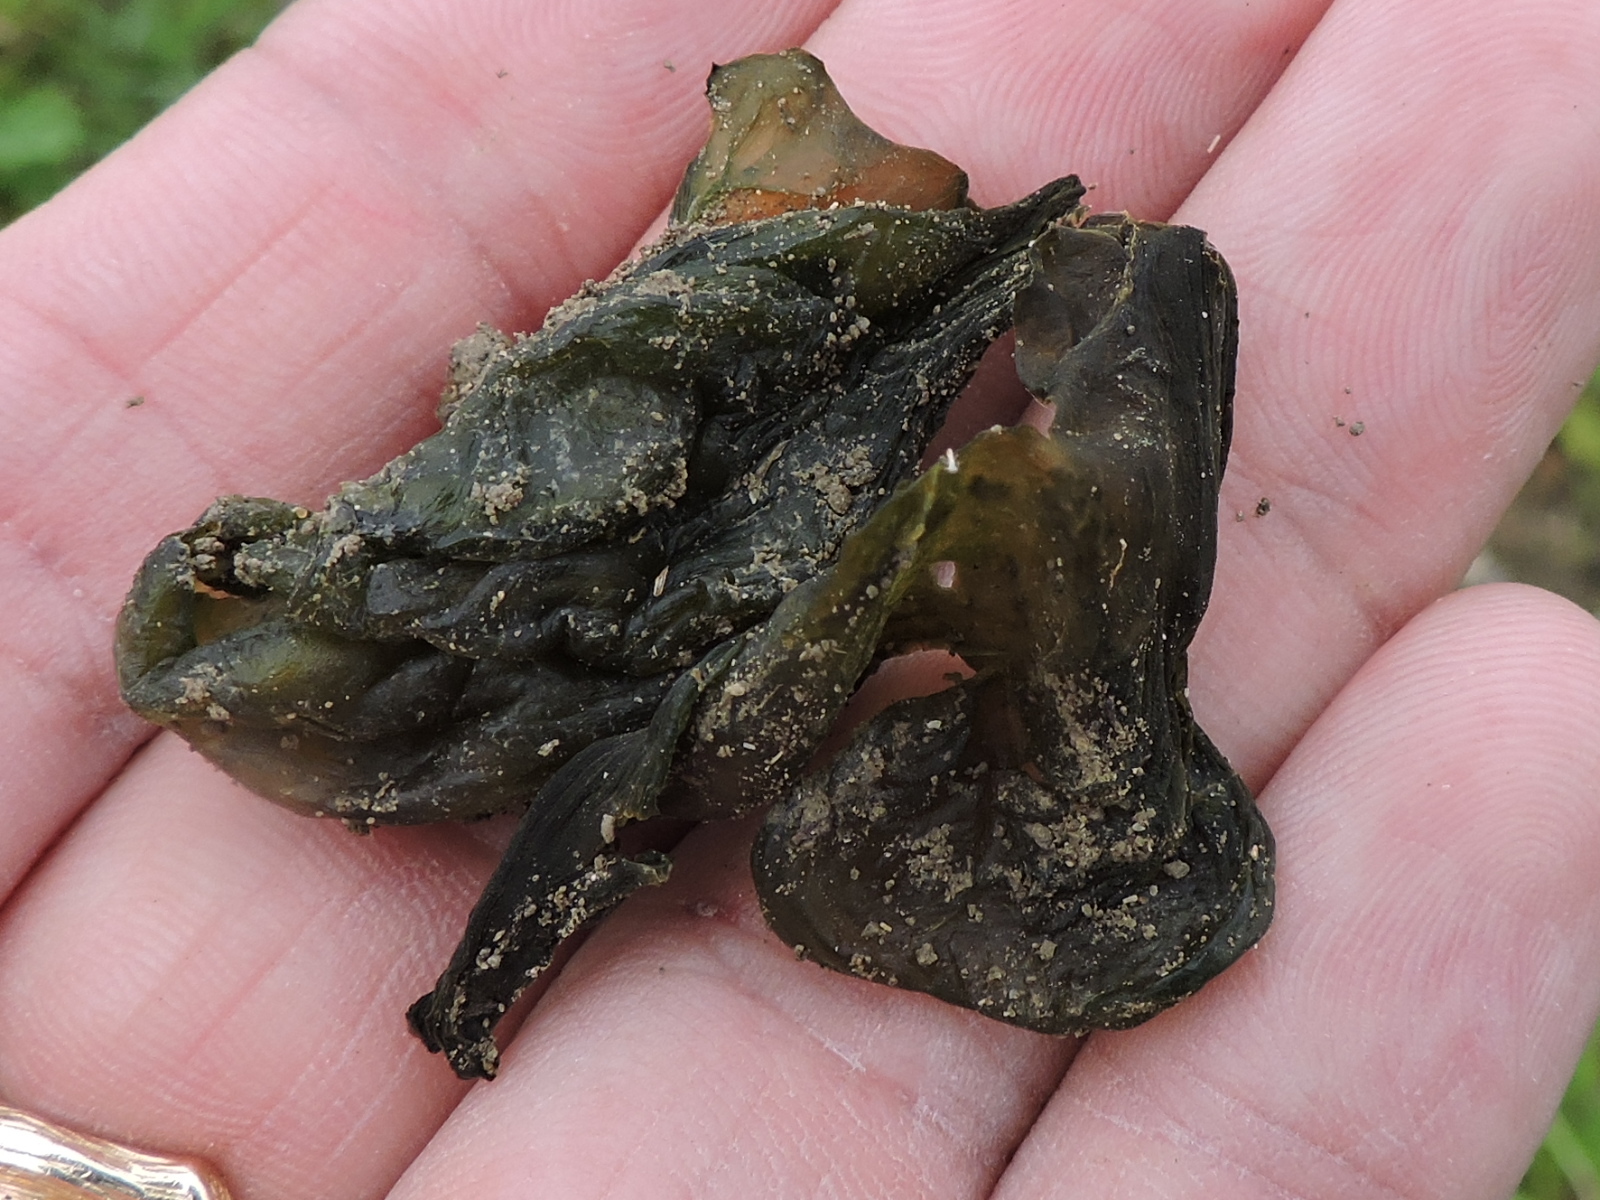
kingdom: Bacteria
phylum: Cyanobacteria
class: Cyanobacteriia
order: Cyanobacteriales
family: Nostocaceae
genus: Nostoc
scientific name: Nostoc commune
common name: Star jelly
